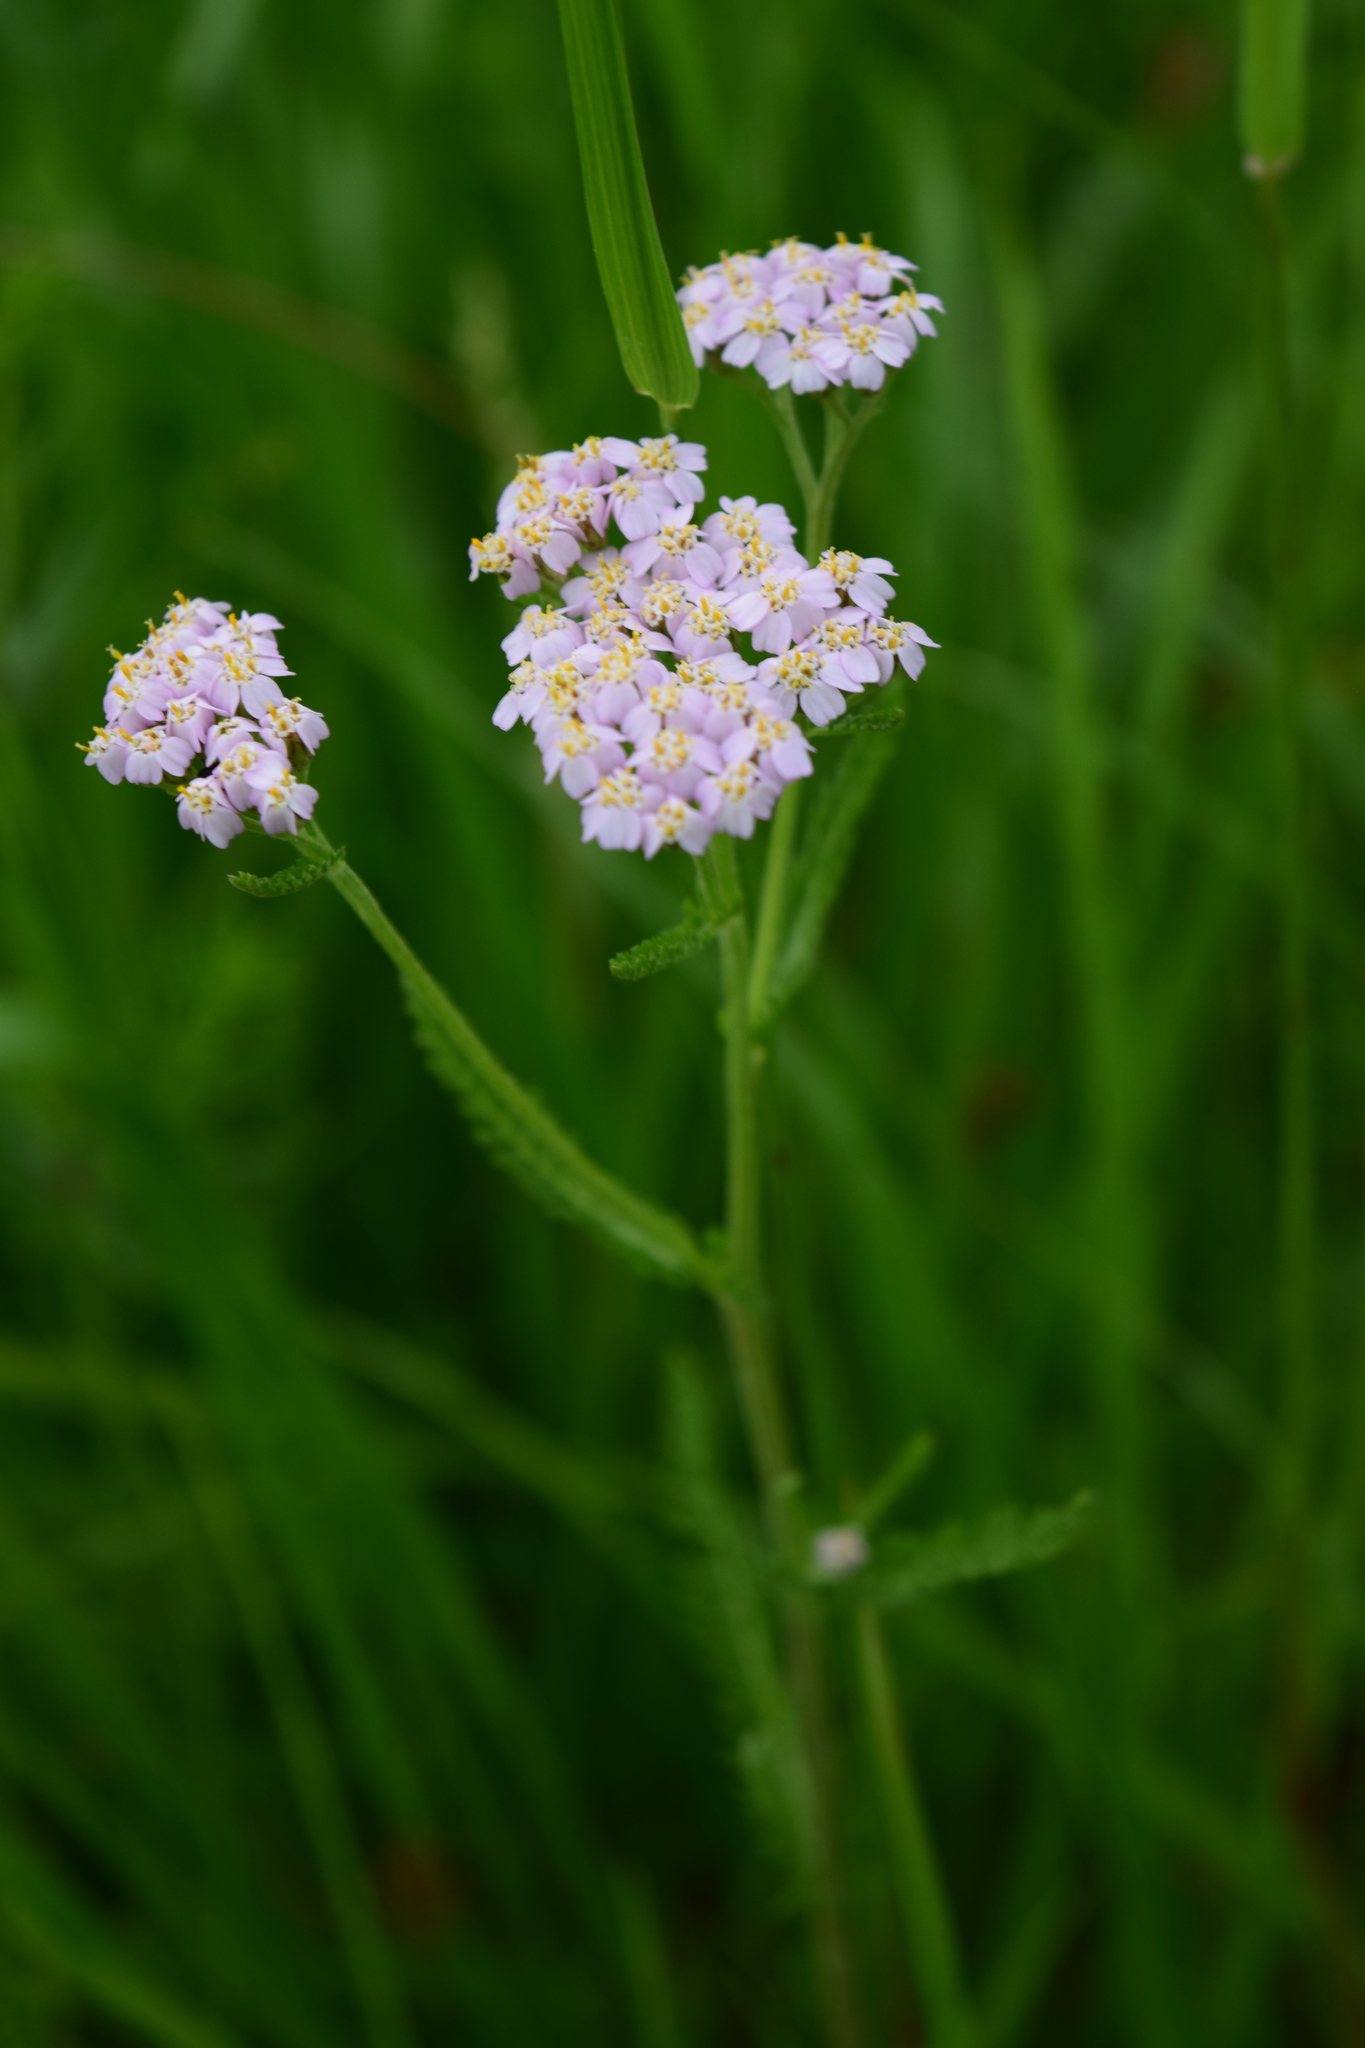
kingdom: Plantae
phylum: Tracheophyta
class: Magnoliopsida
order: Asterales
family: Asteraceae
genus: Achillea
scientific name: Achillea millefolium
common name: Yarrow
